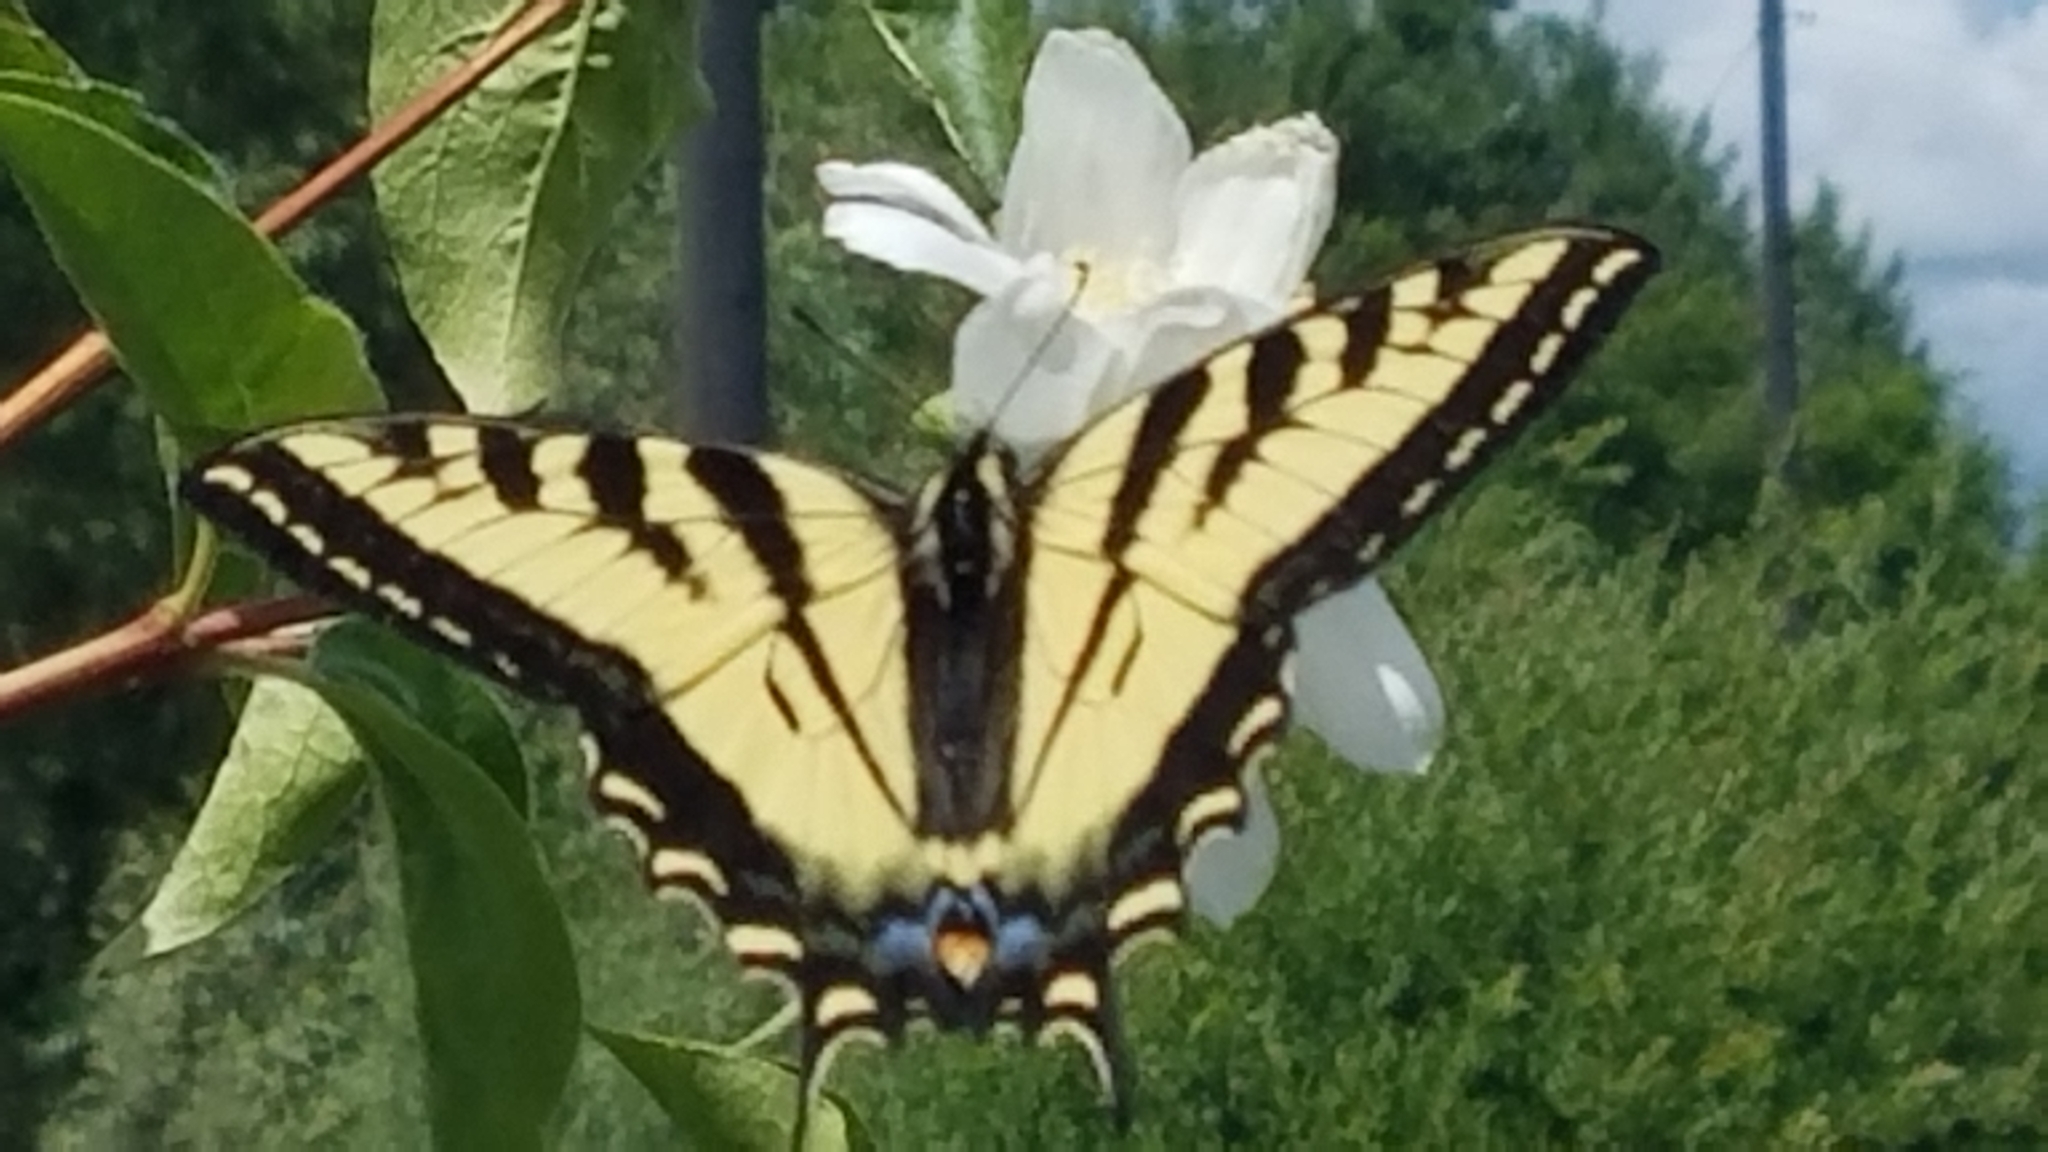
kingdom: Animalia
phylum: Arthropoda
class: Insecta
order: Lepidoptera
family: Papilionidae
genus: Papilio
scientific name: Papilio rutulus
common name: Western tiger swallowtail
